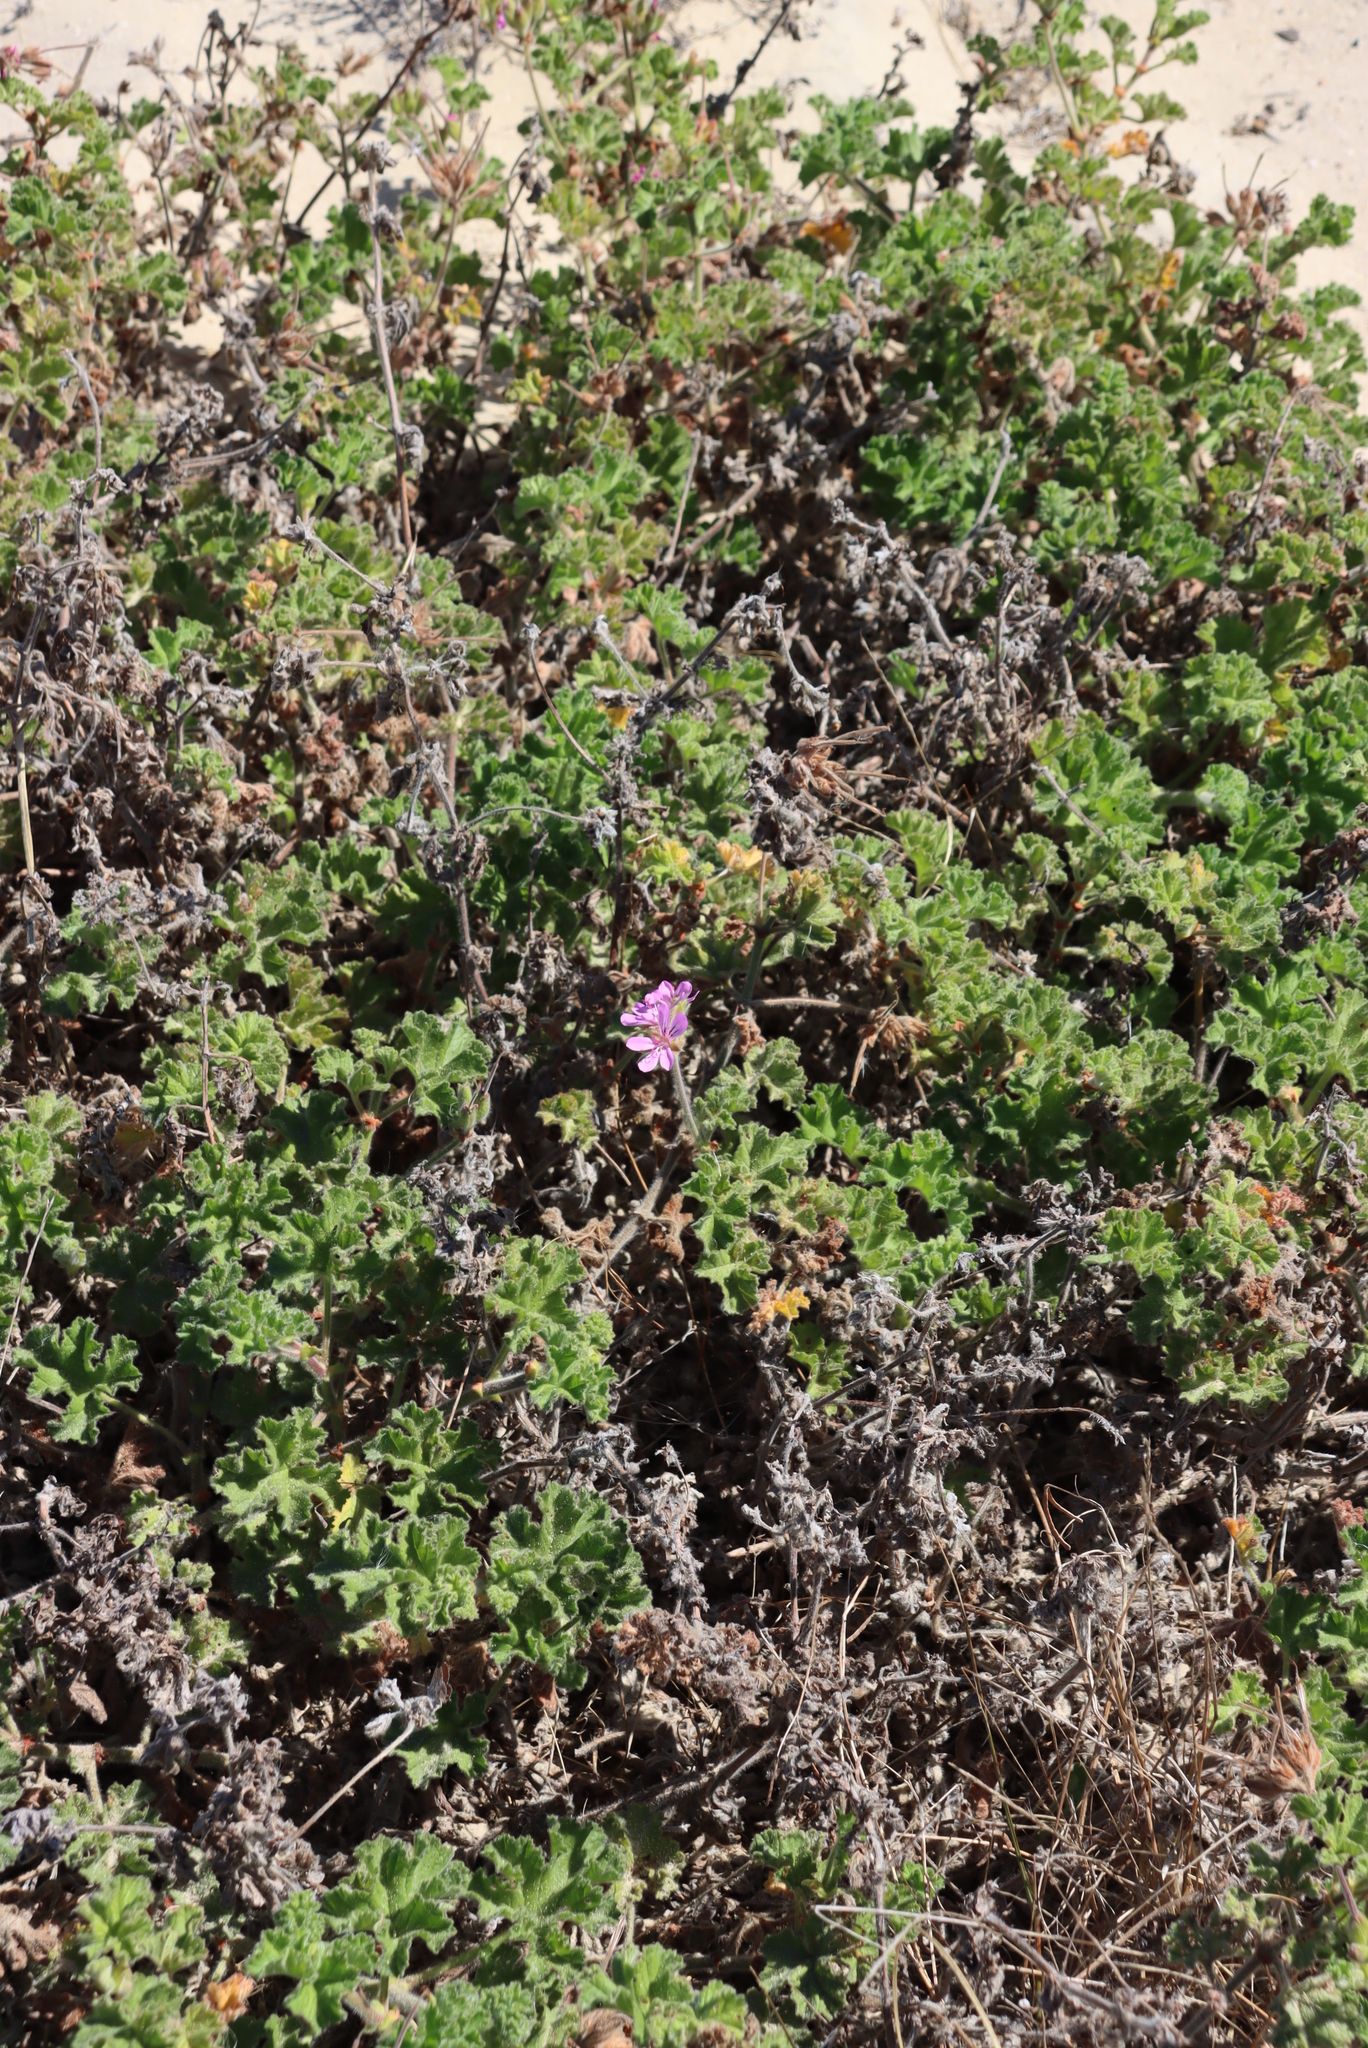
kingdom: Plantae
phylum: Tracheophyta
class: Magnoliopsida
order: Geraniales
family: Geraniaceae
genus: Pelargonium
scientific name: Pelargonium capitatum
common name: Rose scented geranium
